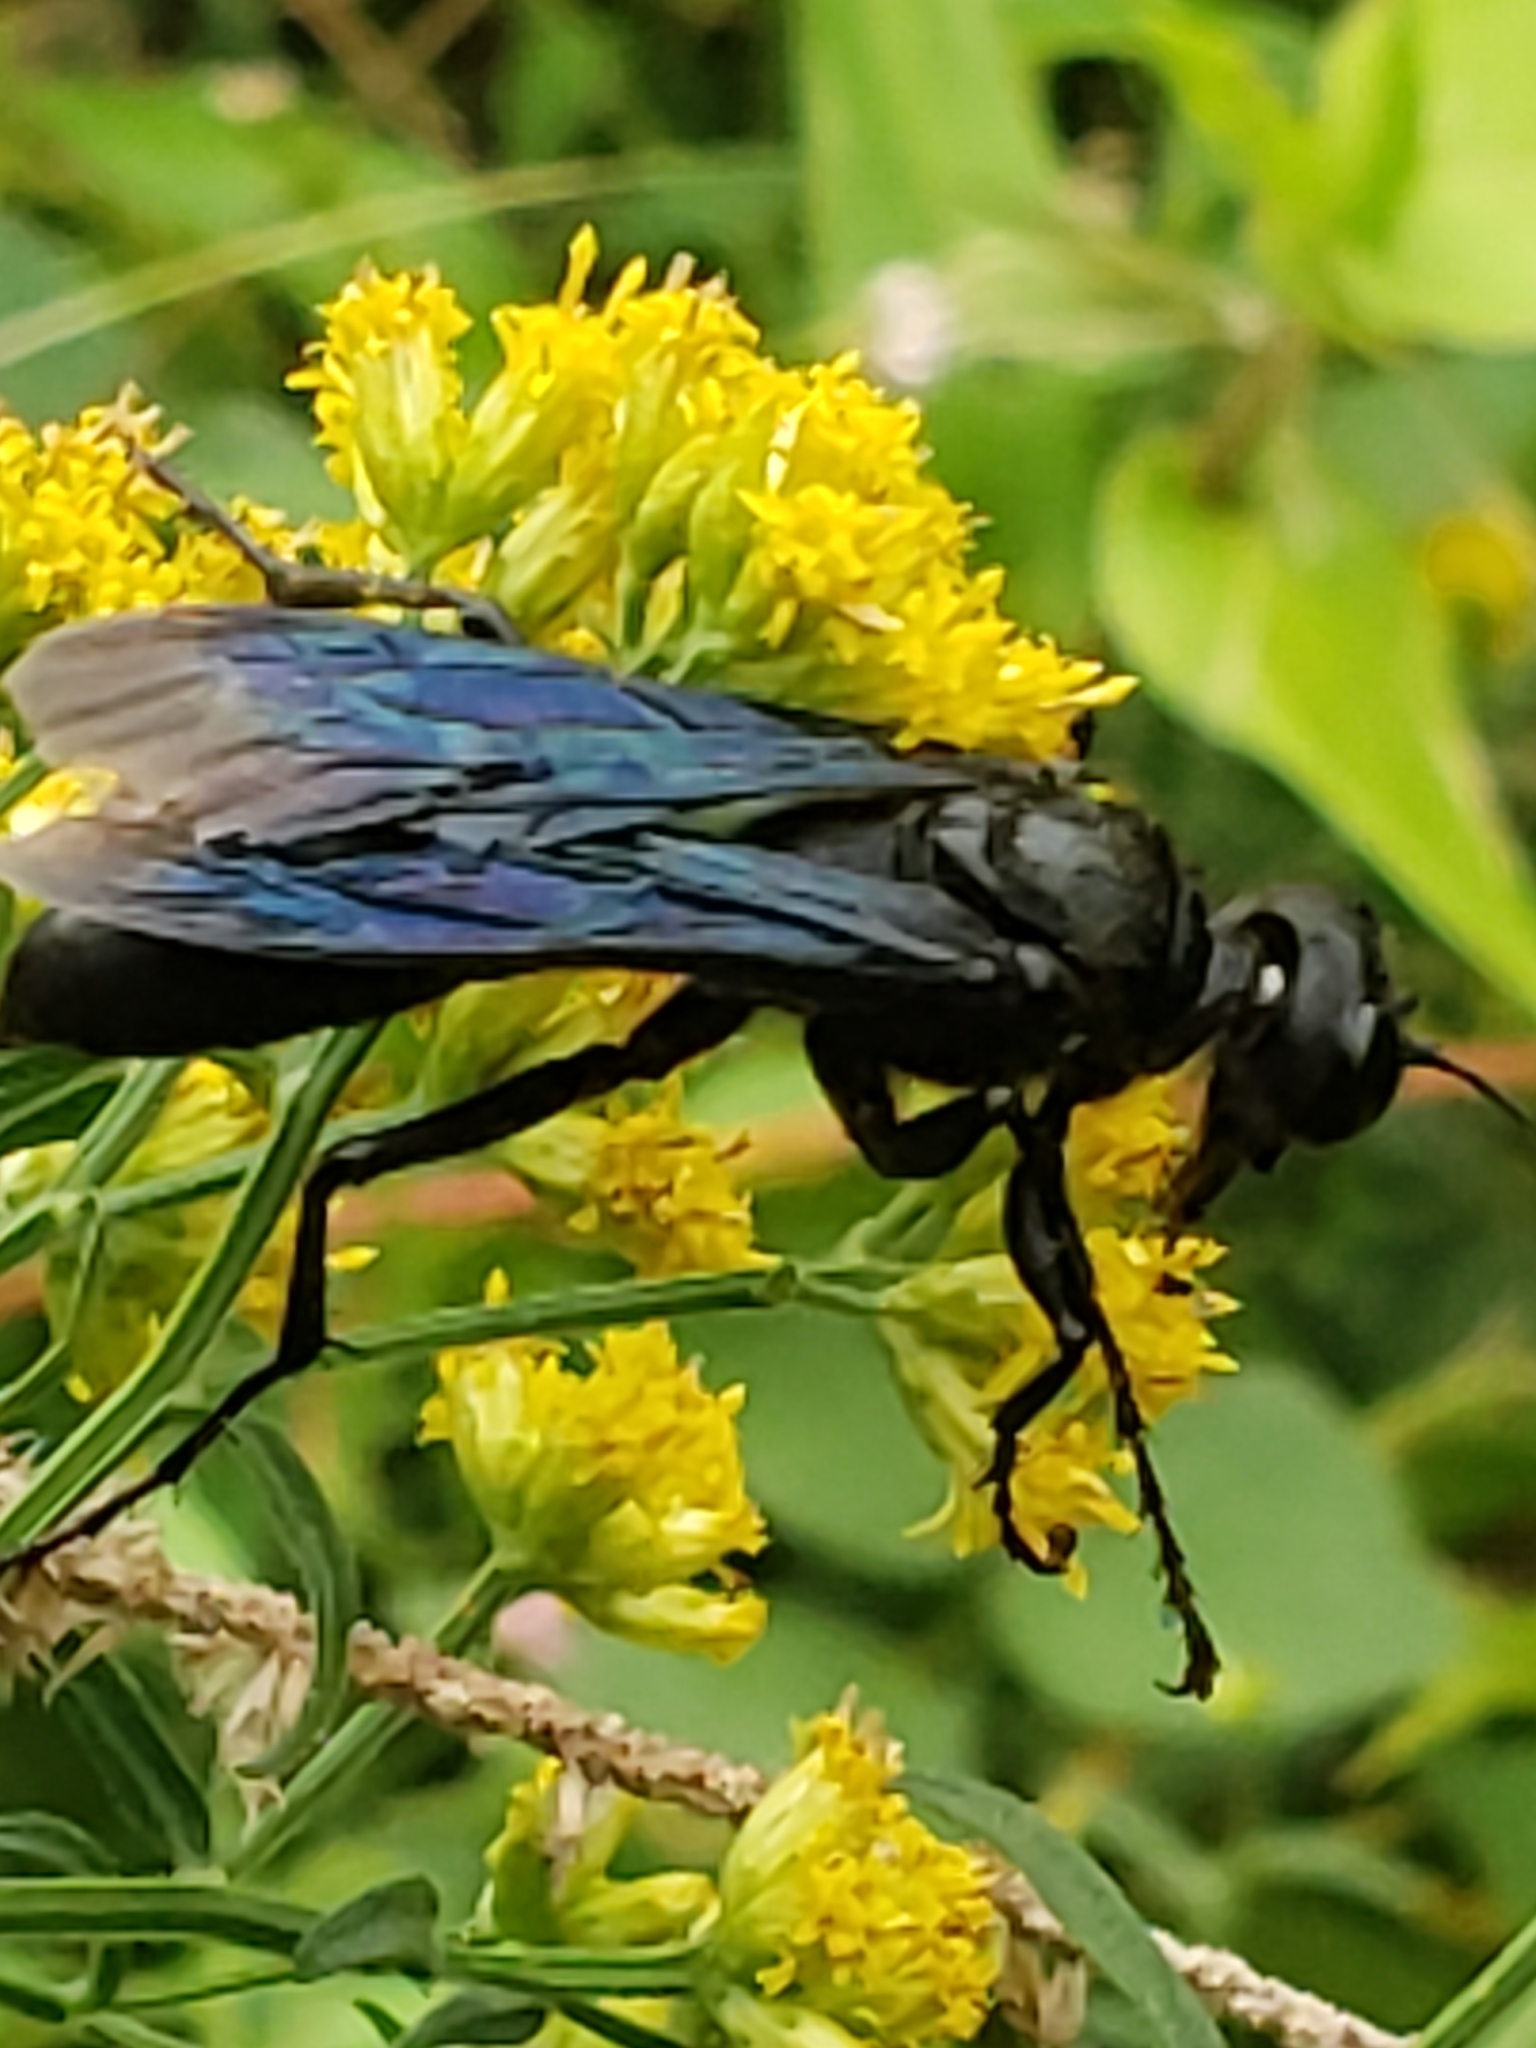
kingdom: Animalia
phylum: Arthropoda
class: Insecta
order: Hymenoptera
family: Sphecidae
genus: Sphex
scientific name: Sphex pensylvanicus
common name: Great black digger wasp
